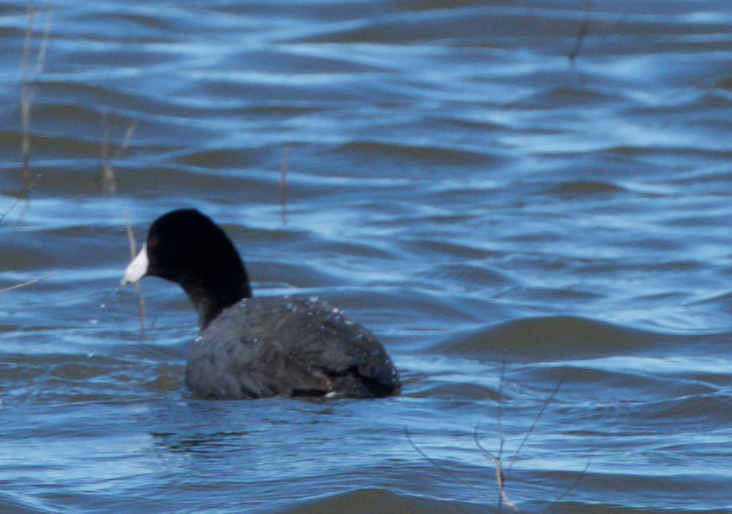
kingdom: Animalia
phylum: Chordata
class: Aves
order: Gruiformes
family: Rallidae
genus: Fulica
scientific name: Fulica americana
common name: American coot
